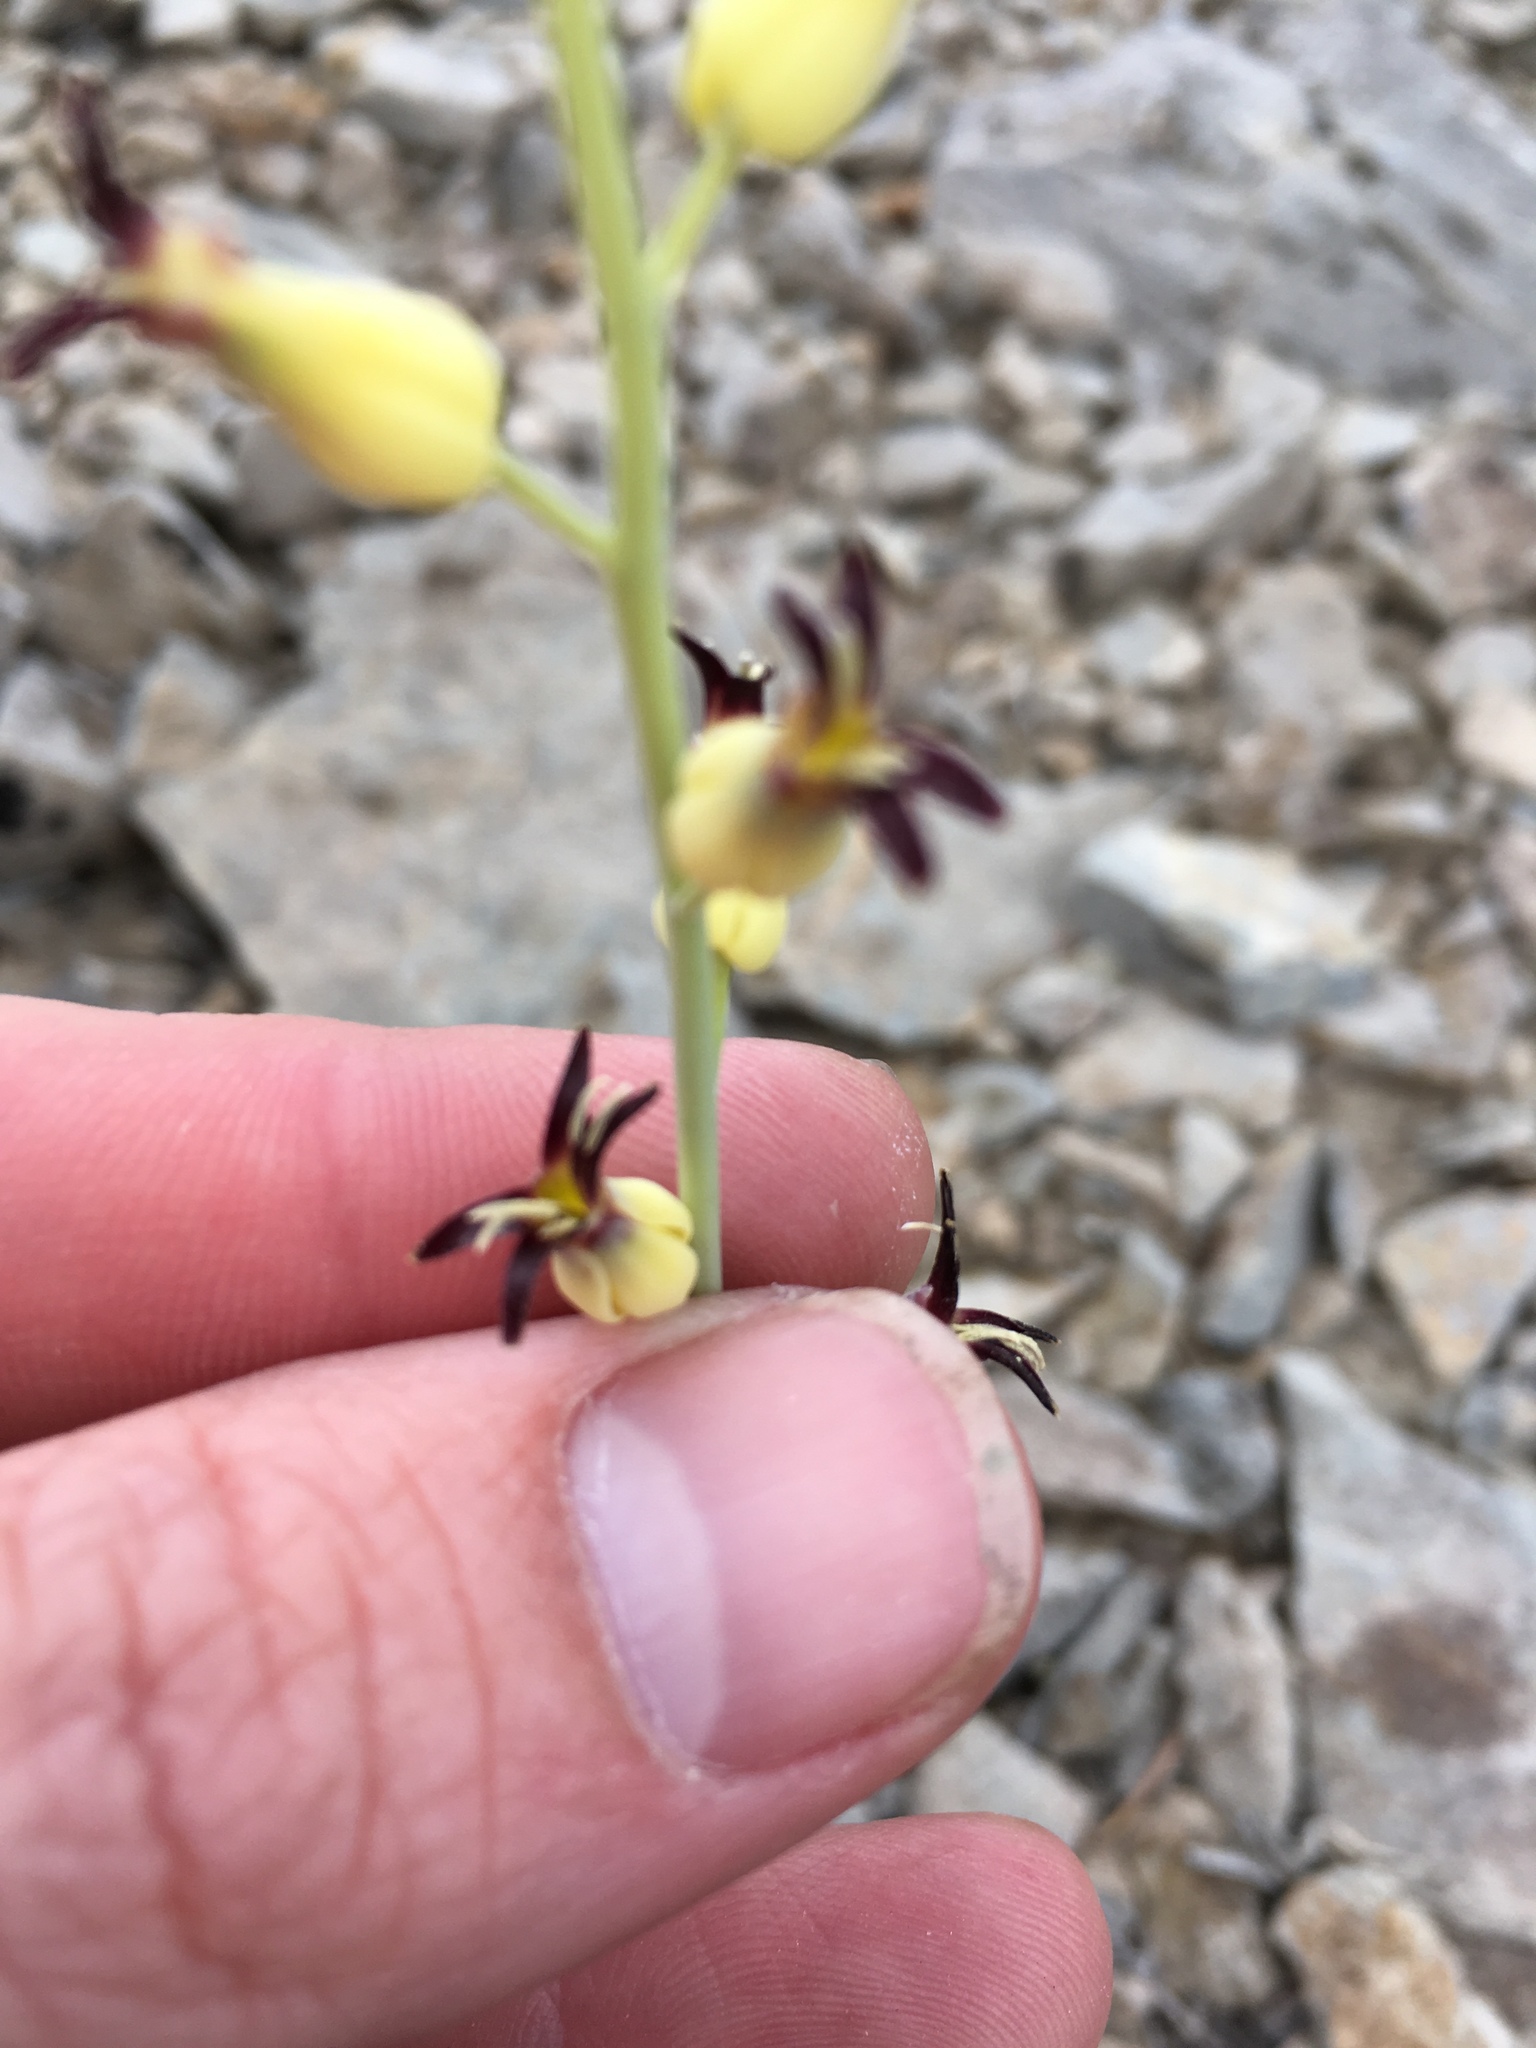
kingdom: Plantae
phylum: Tracheophyta
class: Magnoliopsida
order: Brassicales
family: Brassicaceae
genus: Streptanthus
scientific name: Streptanthus cordatus
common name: Heart-leaf jewel-flower
